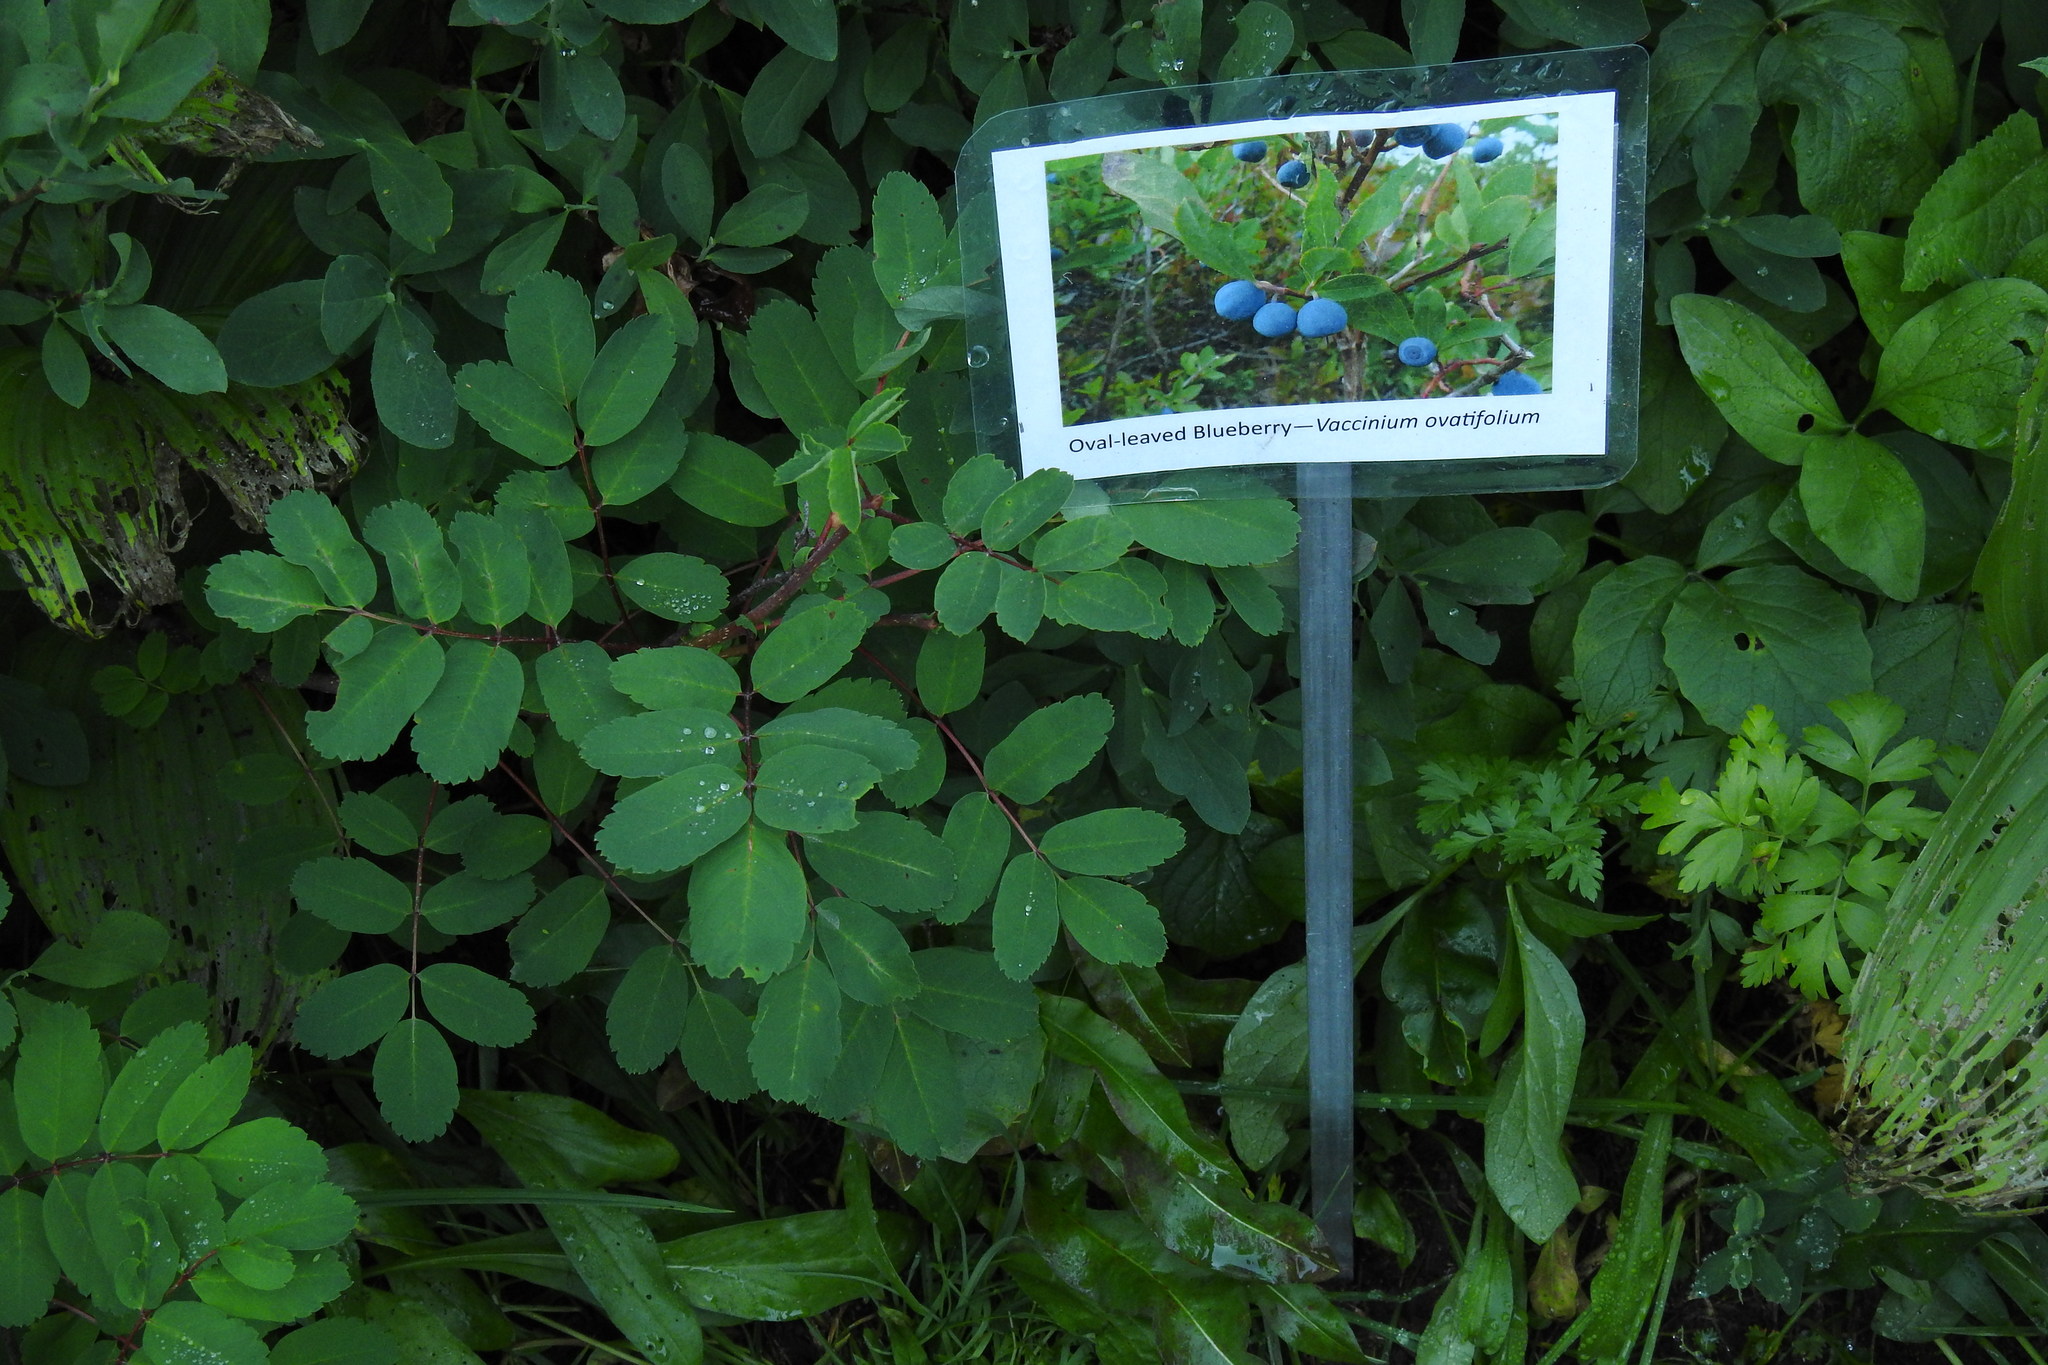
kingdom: Plantae
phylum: Tracheophyta
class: Magnoliopsida
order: Ericales
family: Ericaceae
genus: Vaccinium
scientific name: Vaccinium ovalifolium
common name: Early blueberry
